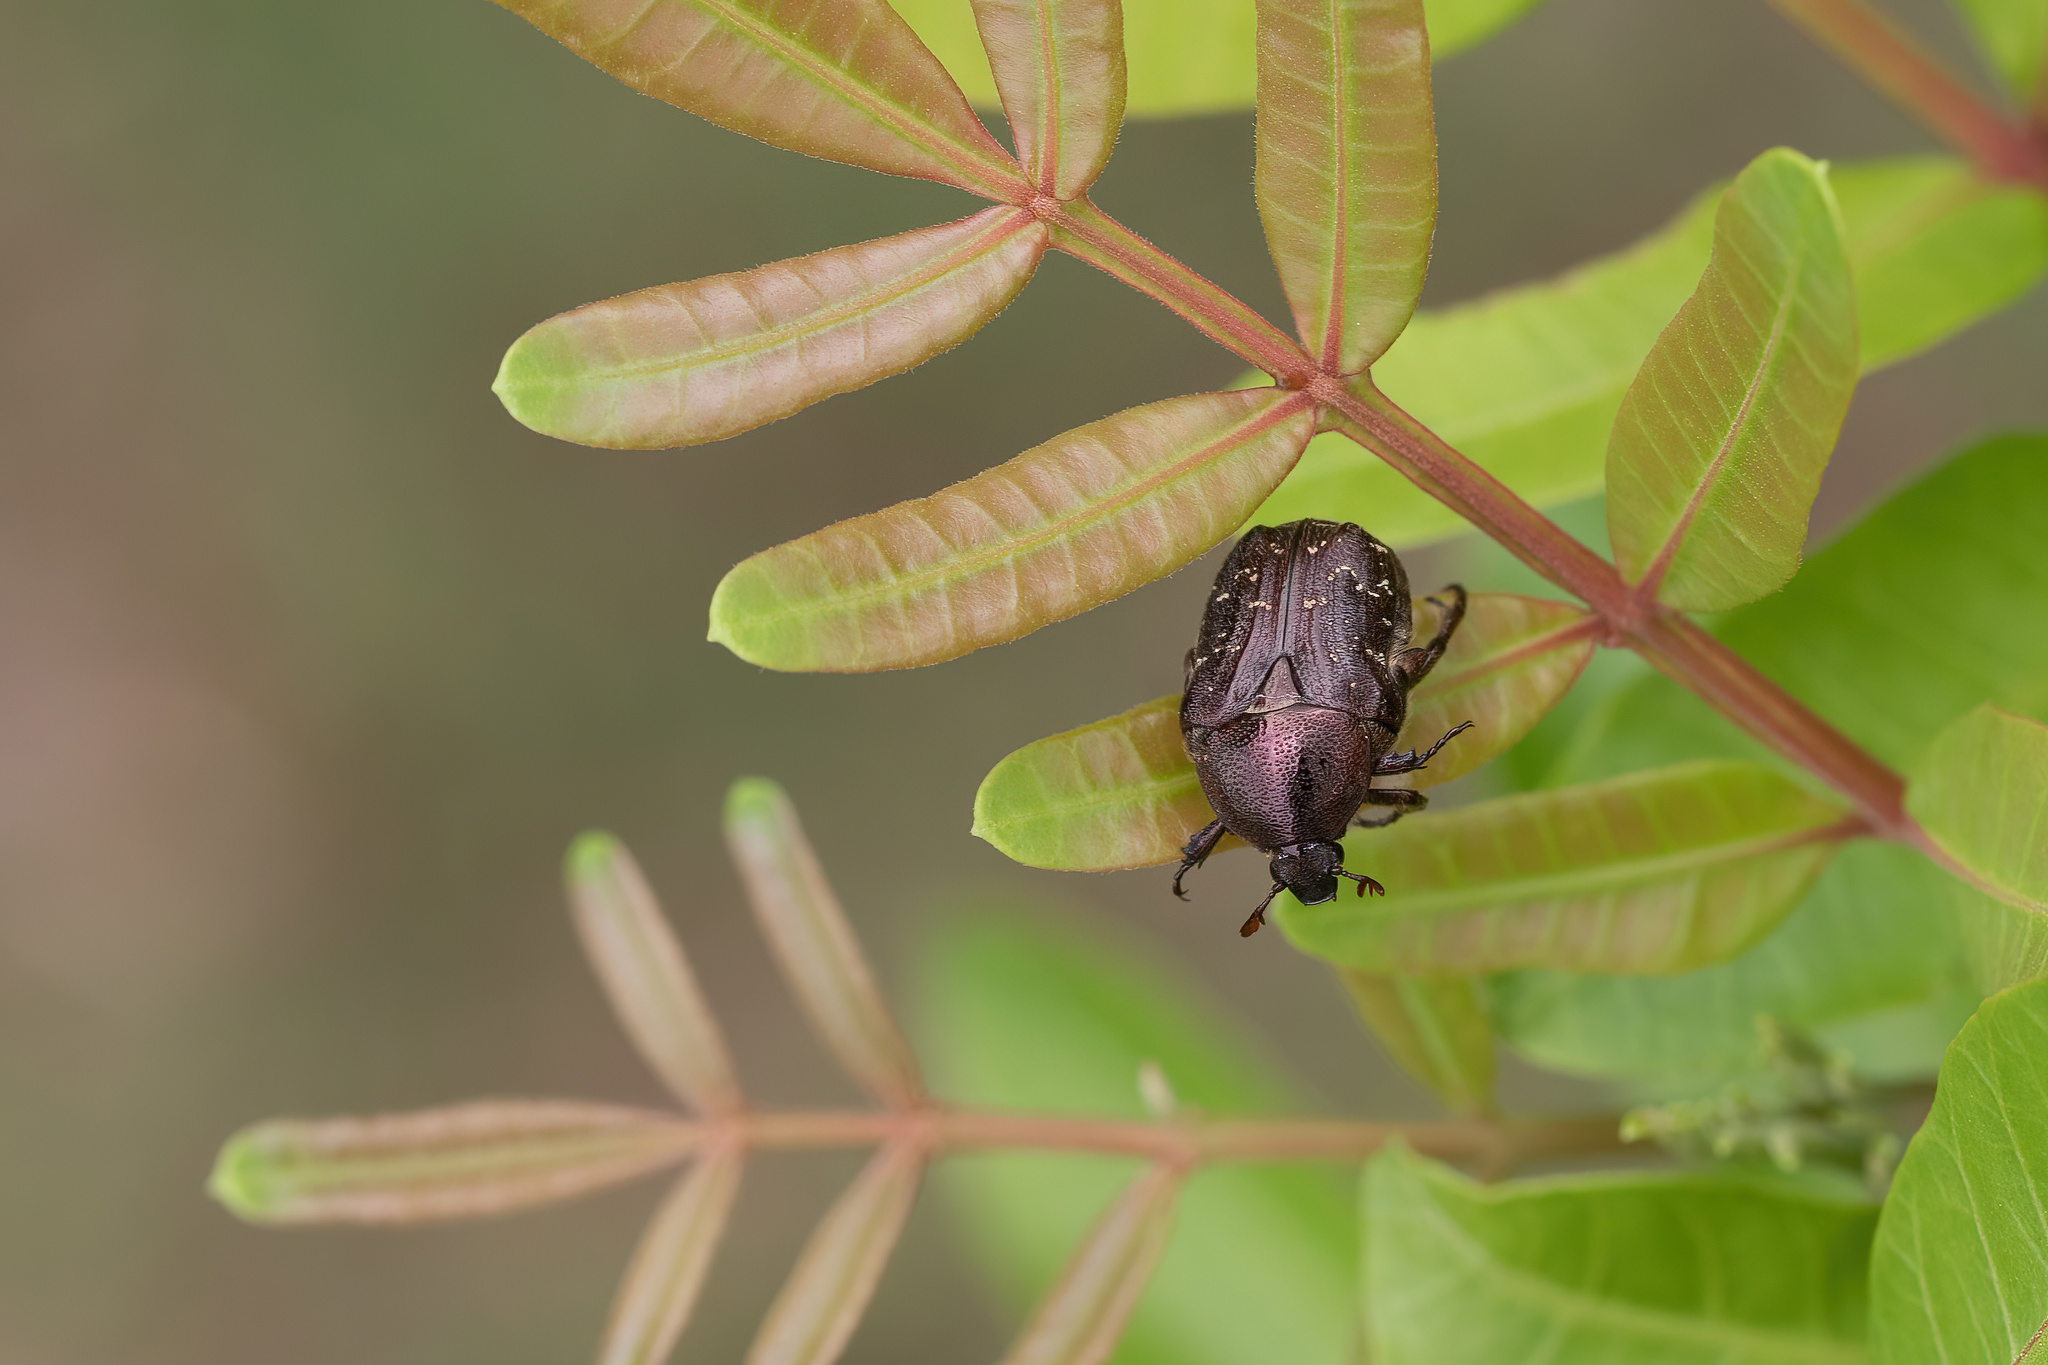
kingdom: Animalia
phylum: Arthropoda
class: Insecta
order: Coleoptera
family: Scarabaeidae
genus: Euphoria
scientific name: Euphoria sepulcralis
